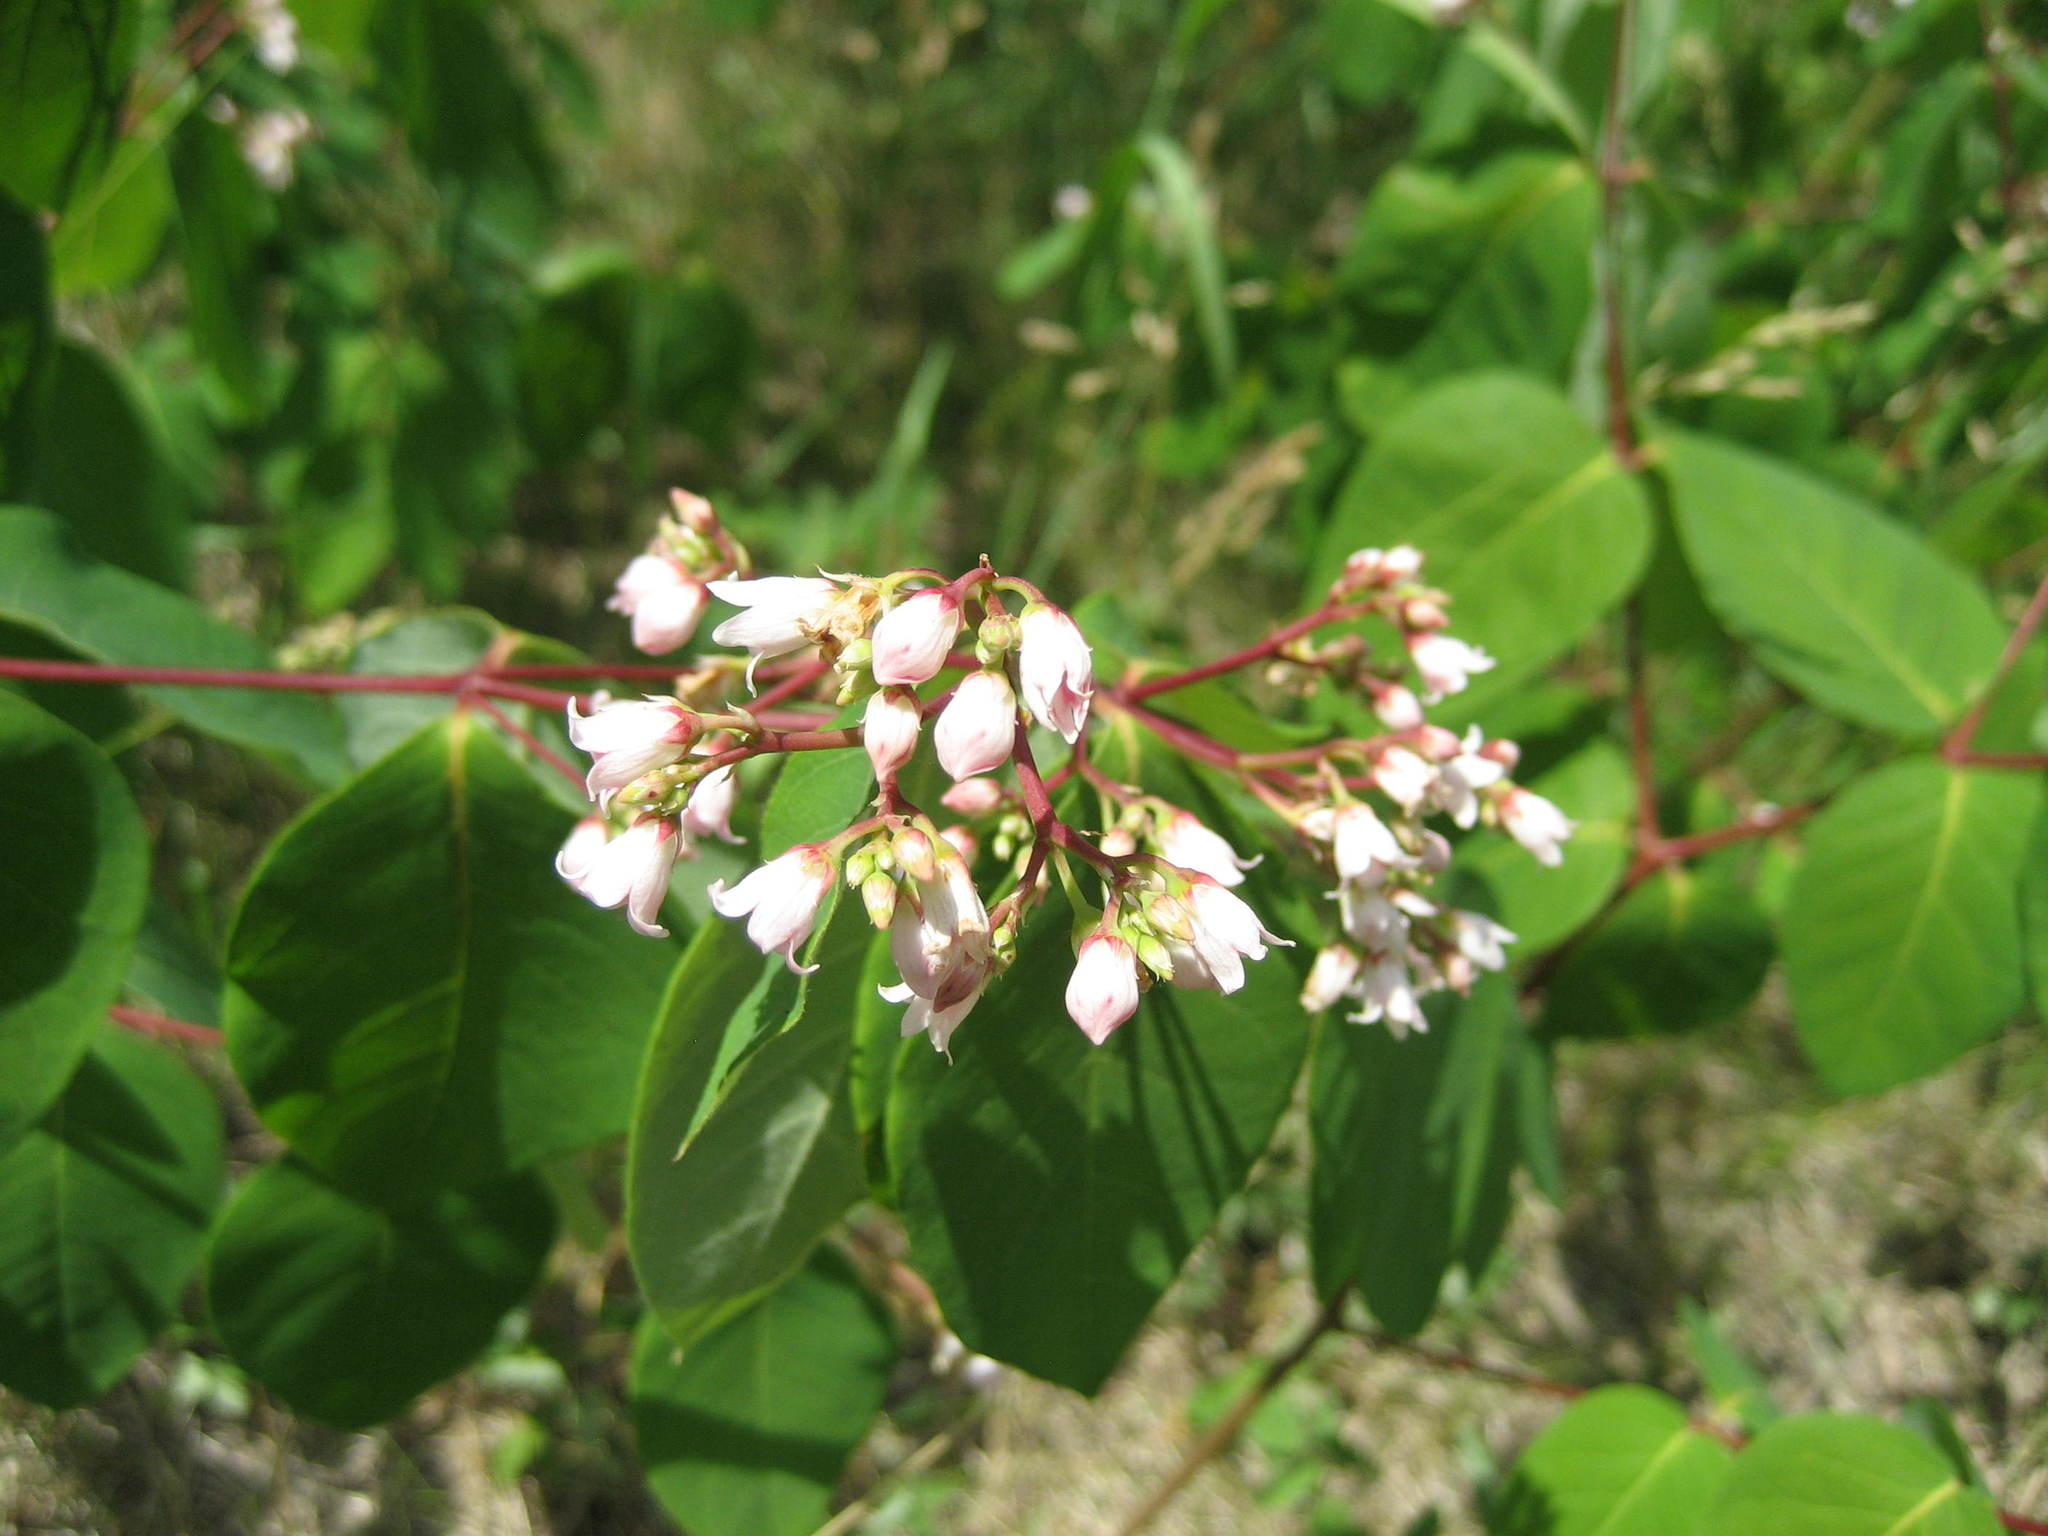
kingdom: Plantae
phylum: Tracheophyta
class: Magnoliopsida
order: Gentianales
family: Apocynaceae
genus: Apocynum
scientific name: Apocynum androsaemifolium
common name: Spreading dogbane
